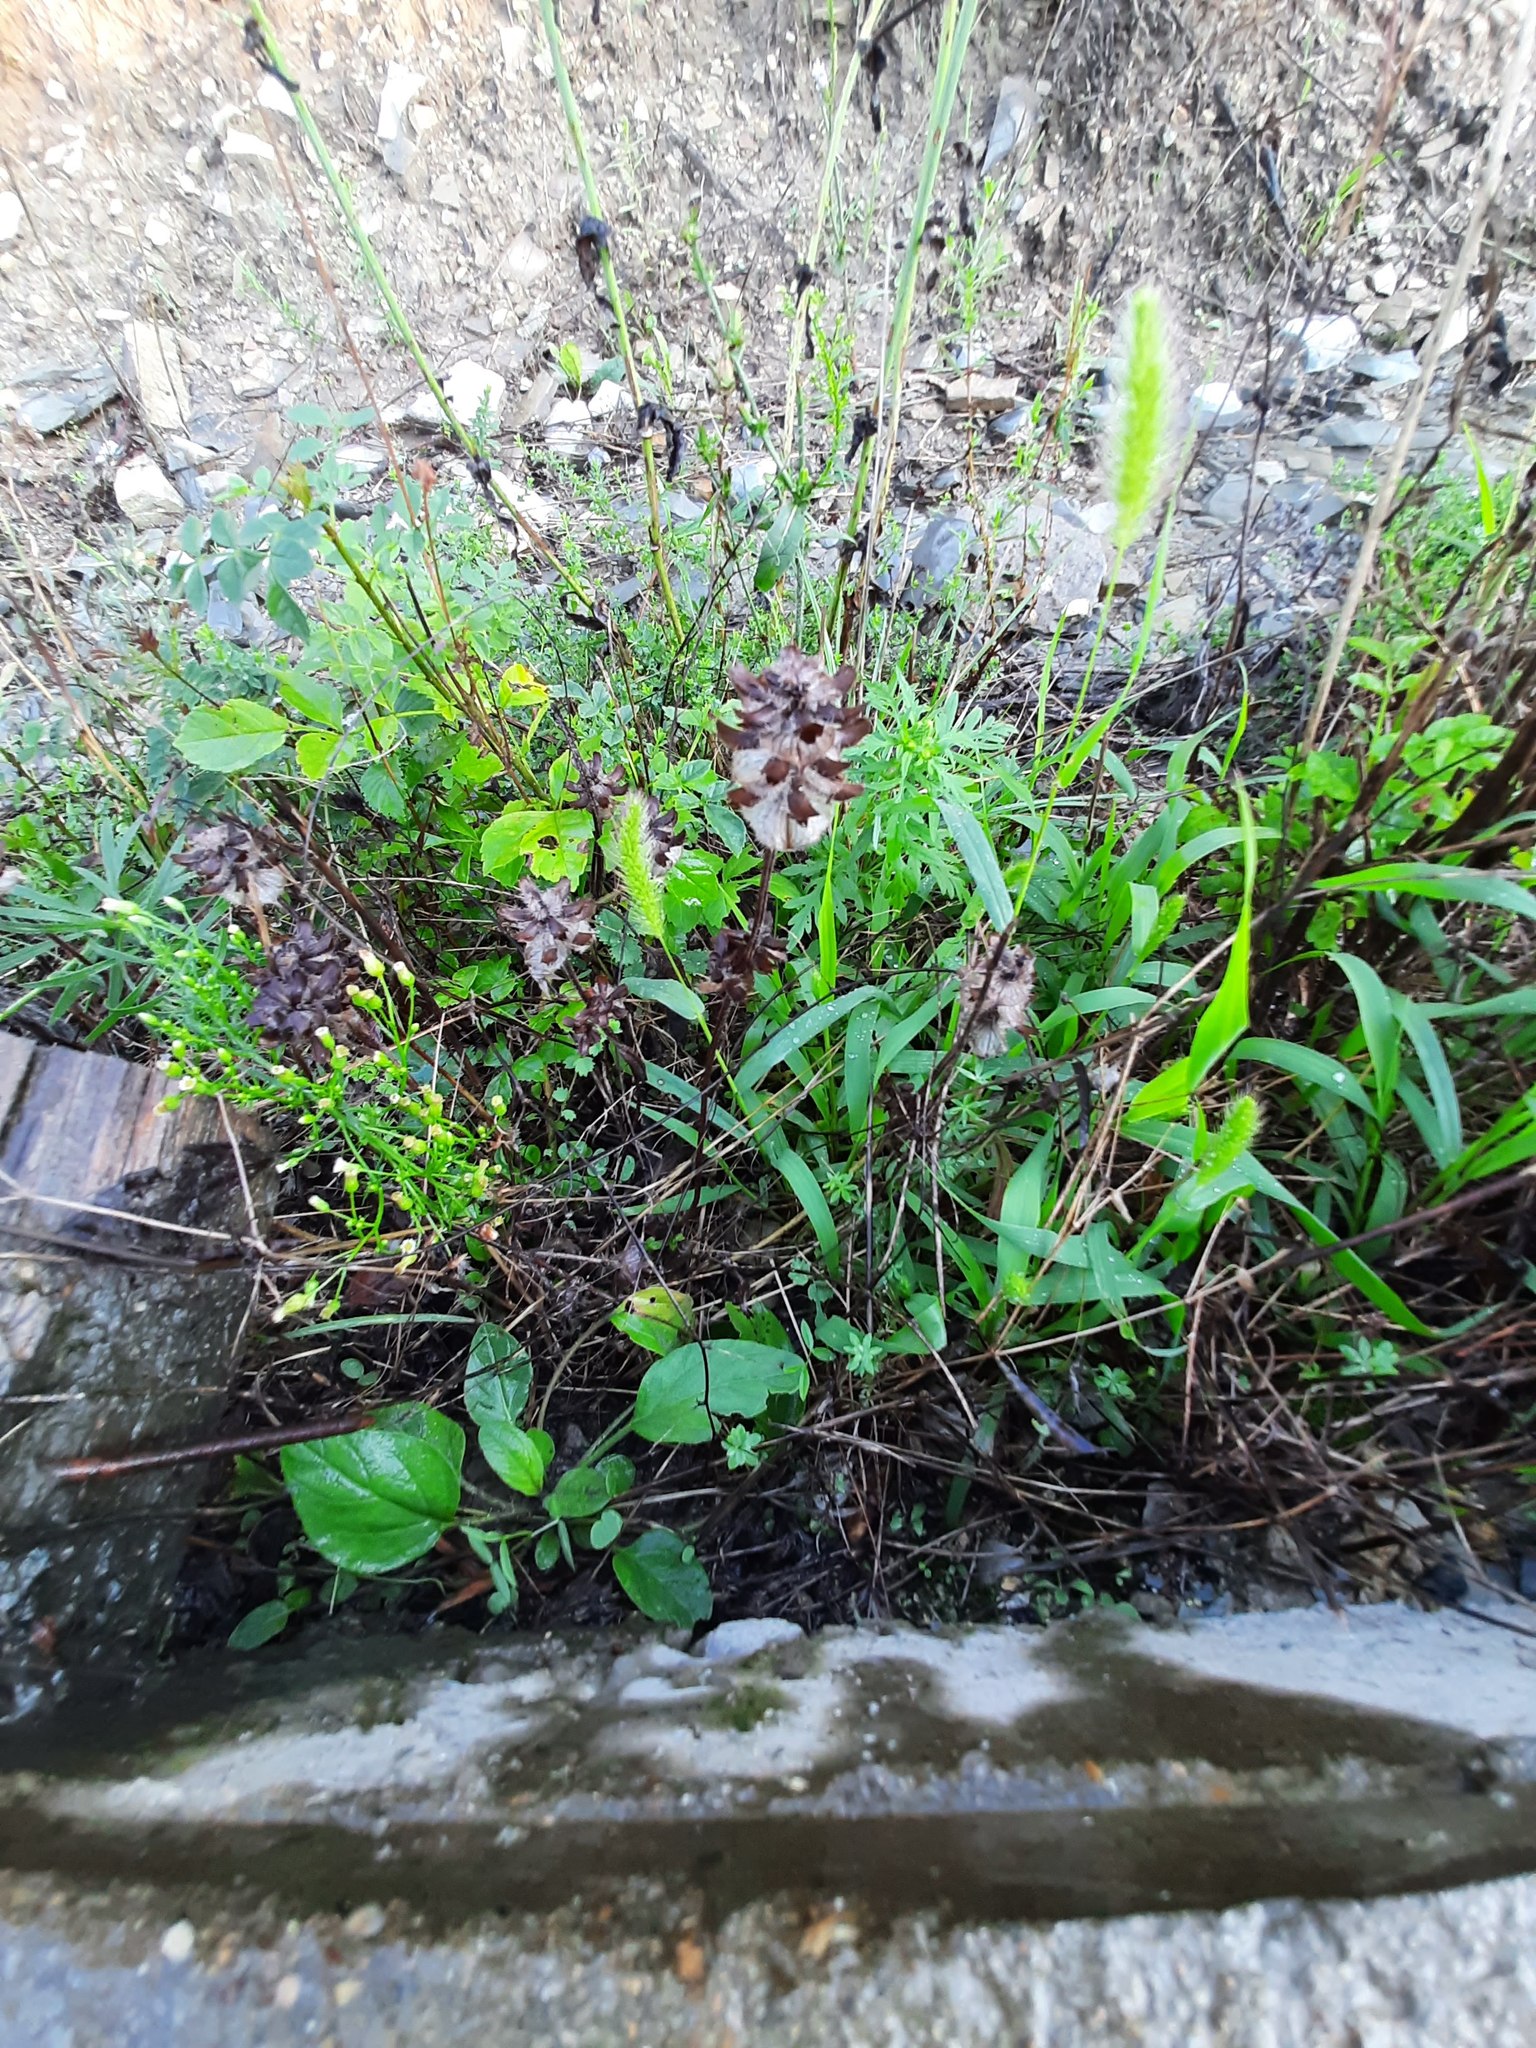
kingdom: Plantae
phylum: Tracheophyta
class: Liliopsida
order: Poales
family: Poaceae
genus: Setaria
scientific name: Setaria viridis
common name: Green bristlegrass
